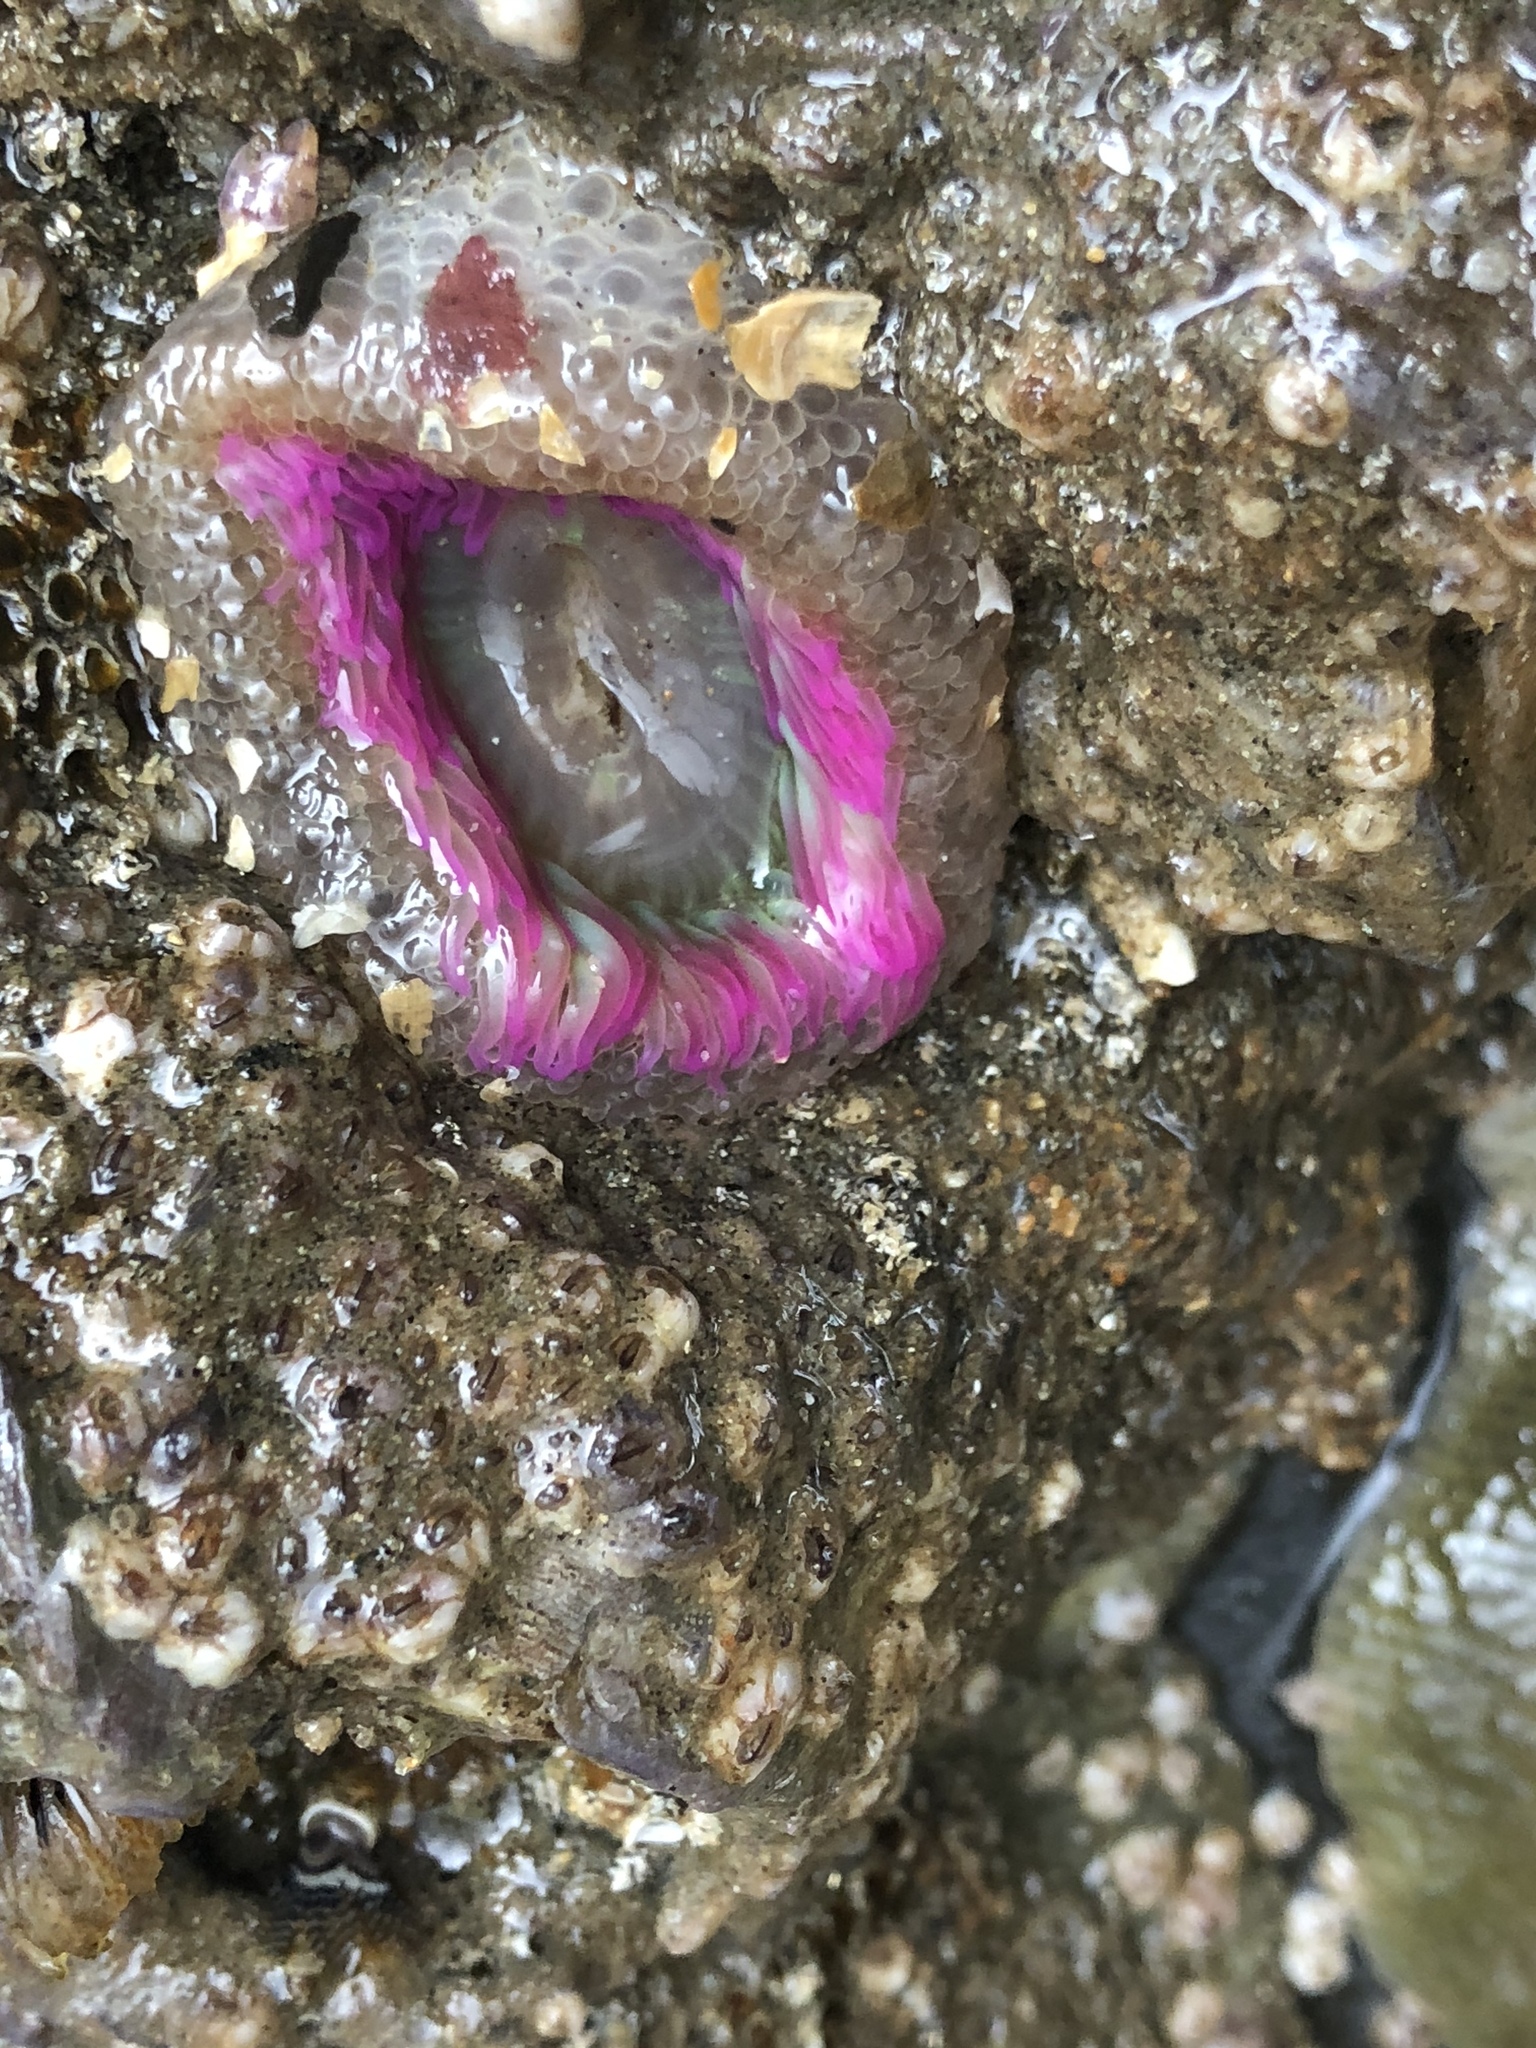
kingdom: Animalia
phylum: Cnidaria
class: Anthozoa
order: Actiniaria
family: Actiniidae
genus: Anthopleura
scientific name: Anthopleura elegantissima
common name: Clonal anemone
